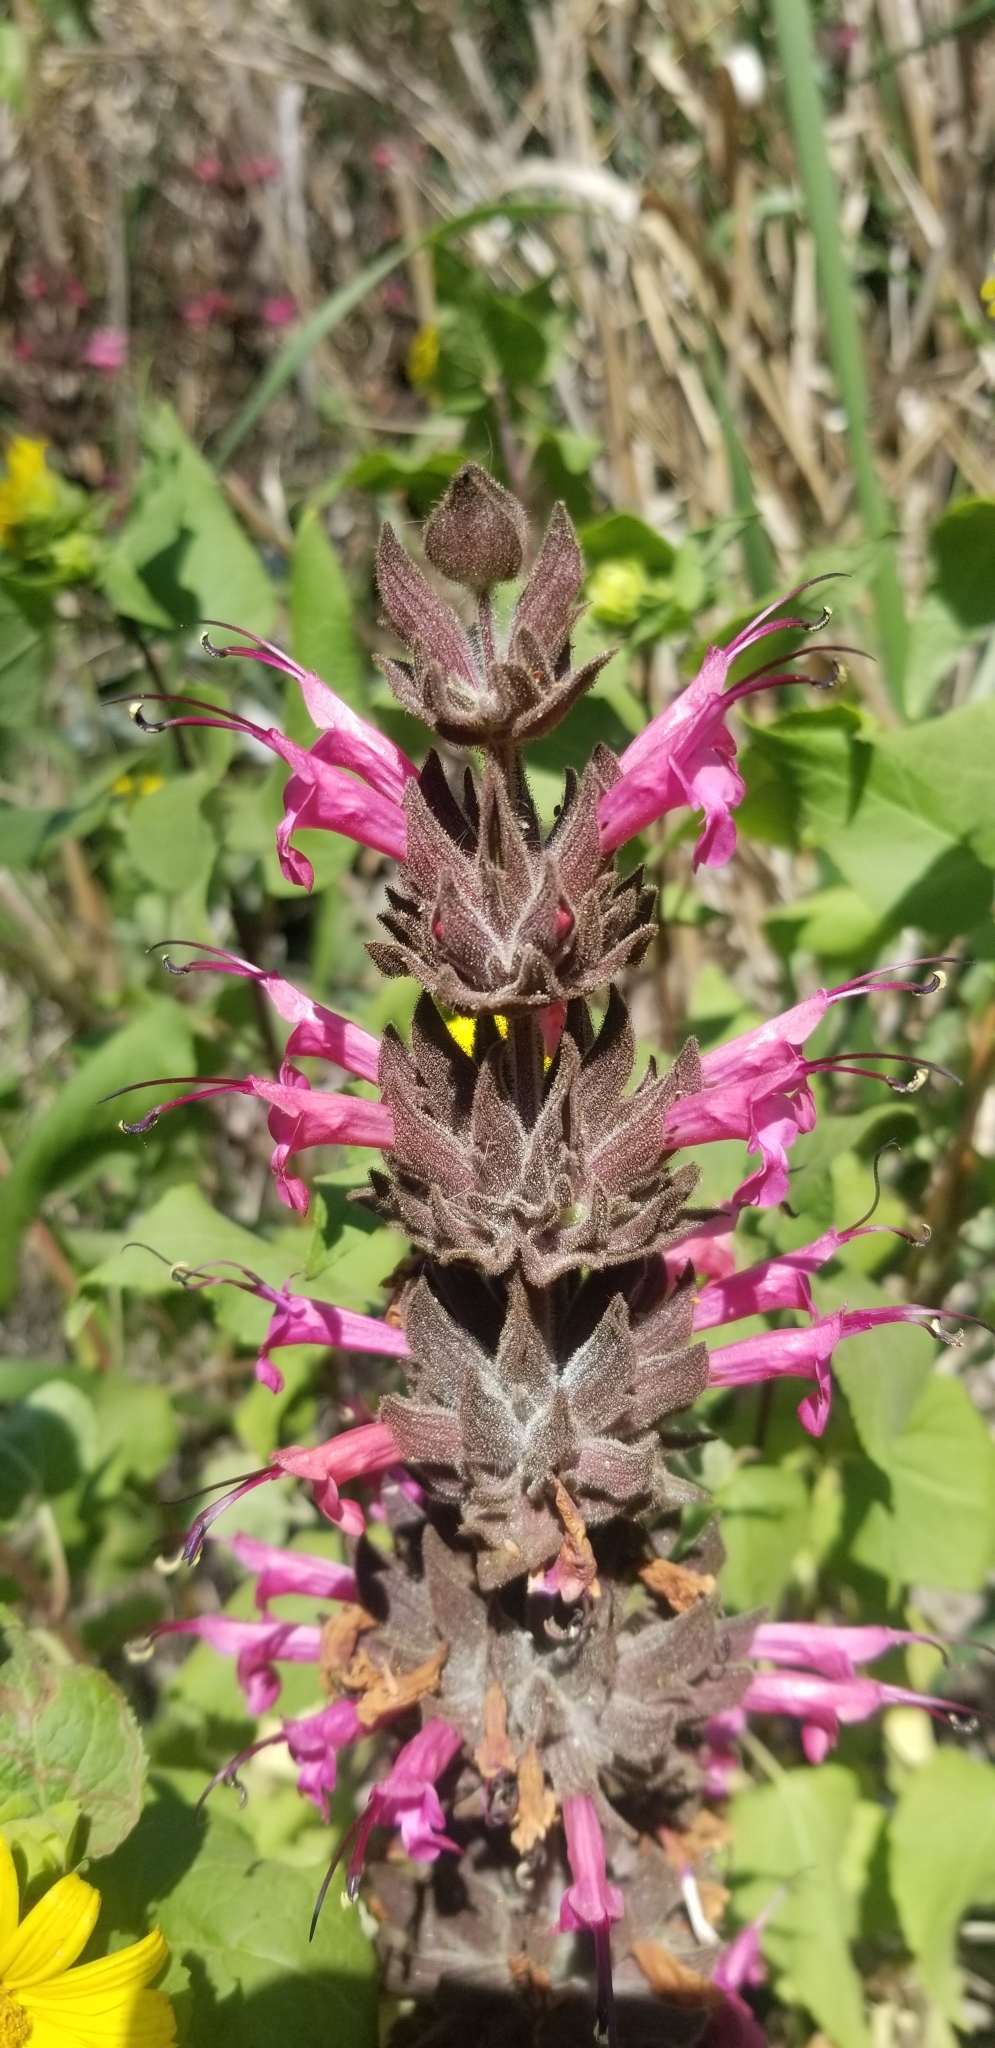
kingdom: Plantae
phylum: Tracheophyta
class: Magnoliopsida
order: Lamiales
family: Lamiaceae
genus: Salvia
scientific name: Salvia spathacea
